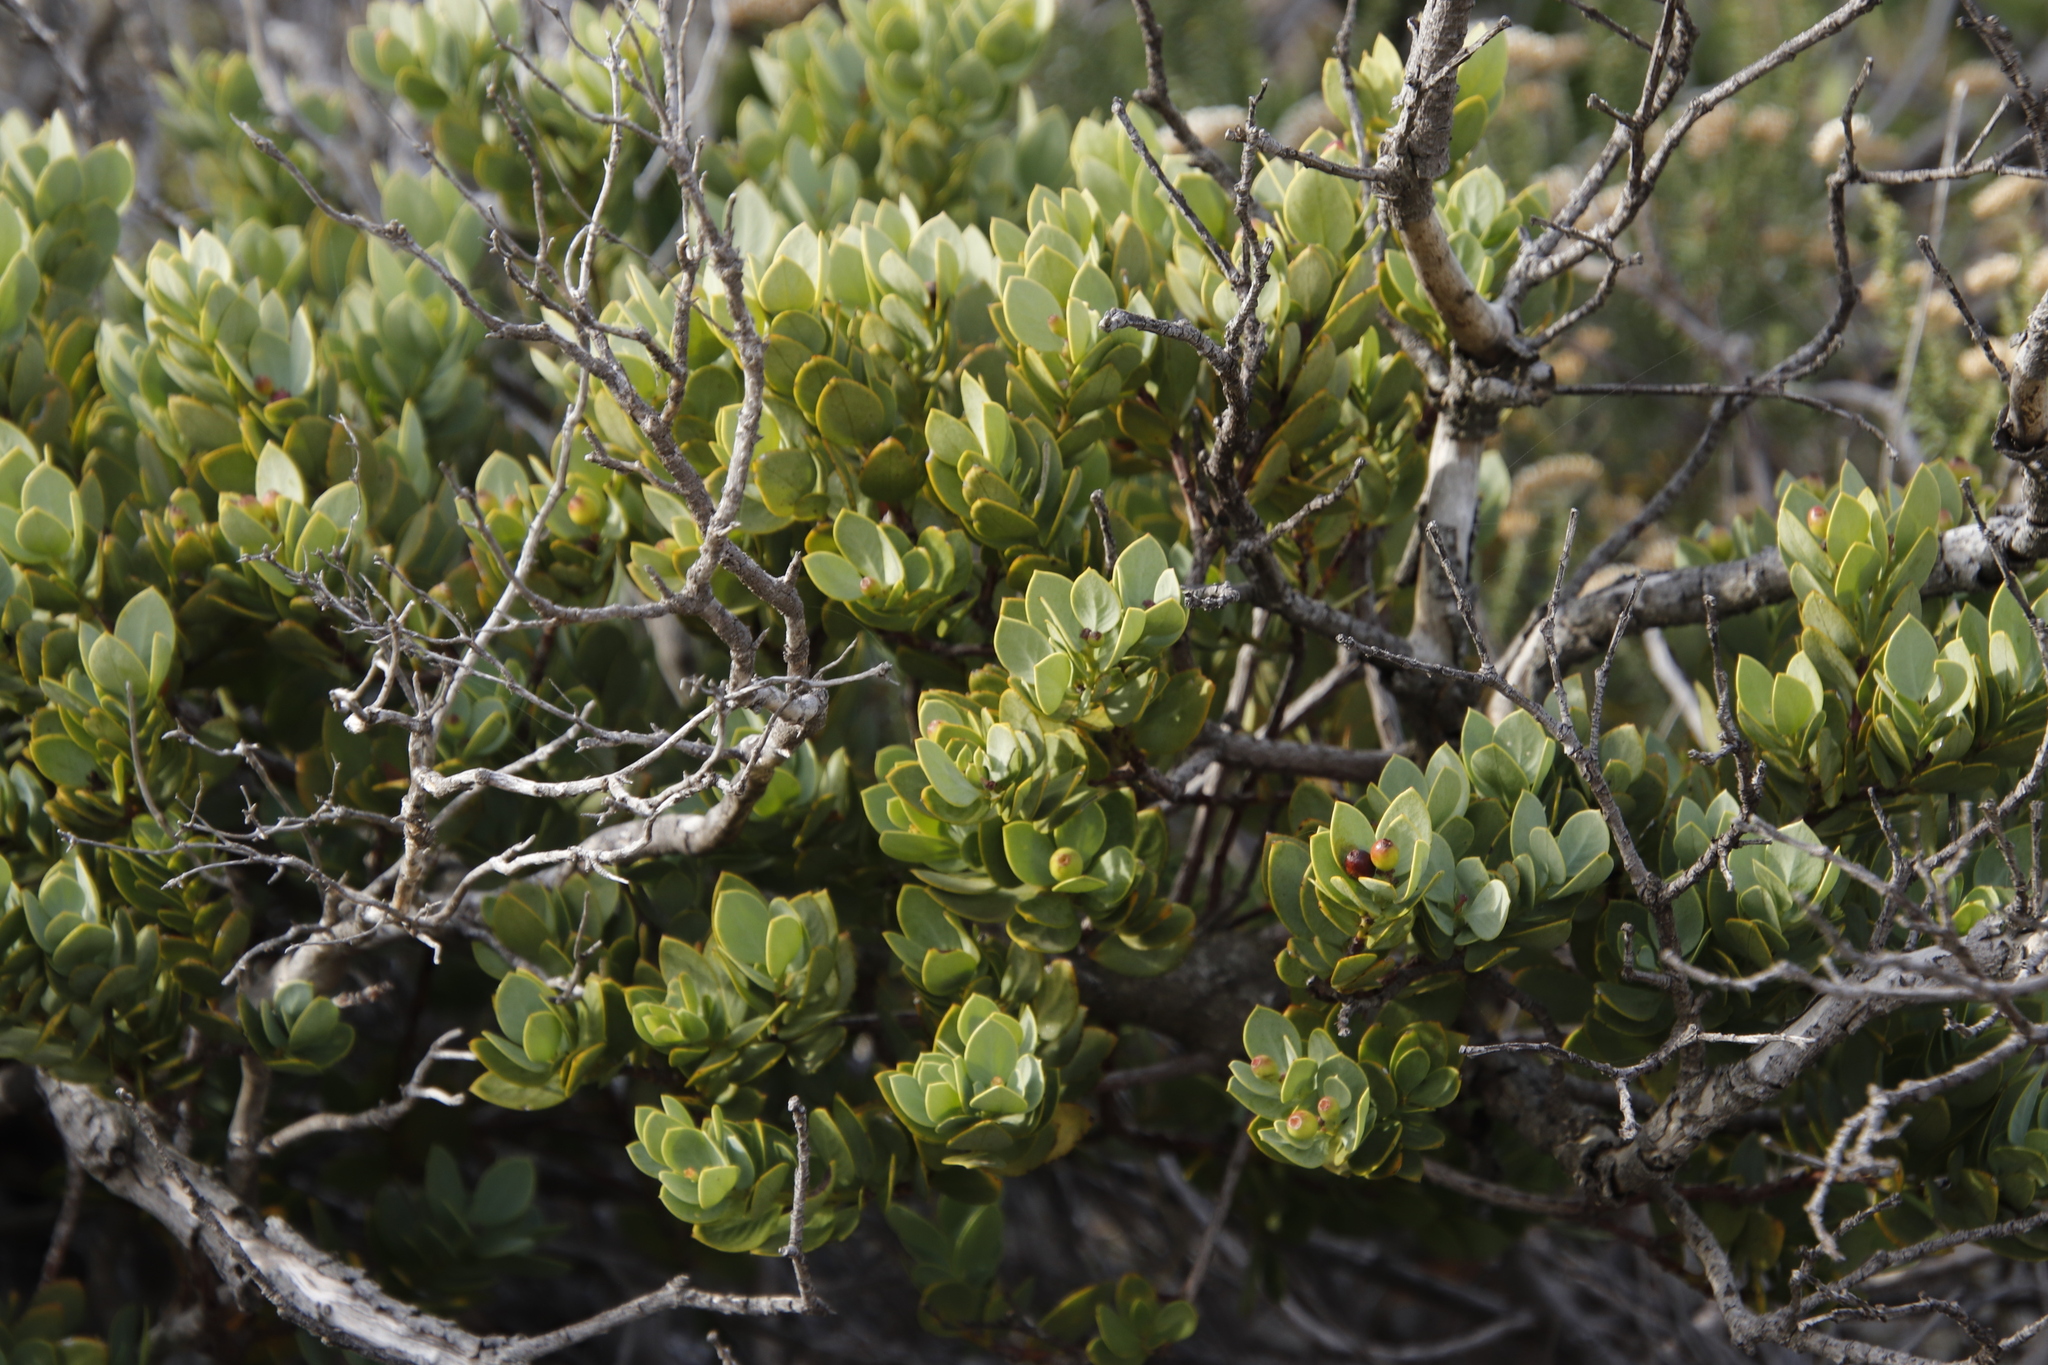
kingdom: Plantae
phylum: Tracheophyta
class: Magnoliopsida
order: Santalales
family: Santalaceae
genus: Osyris
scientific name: Osyris compressa
